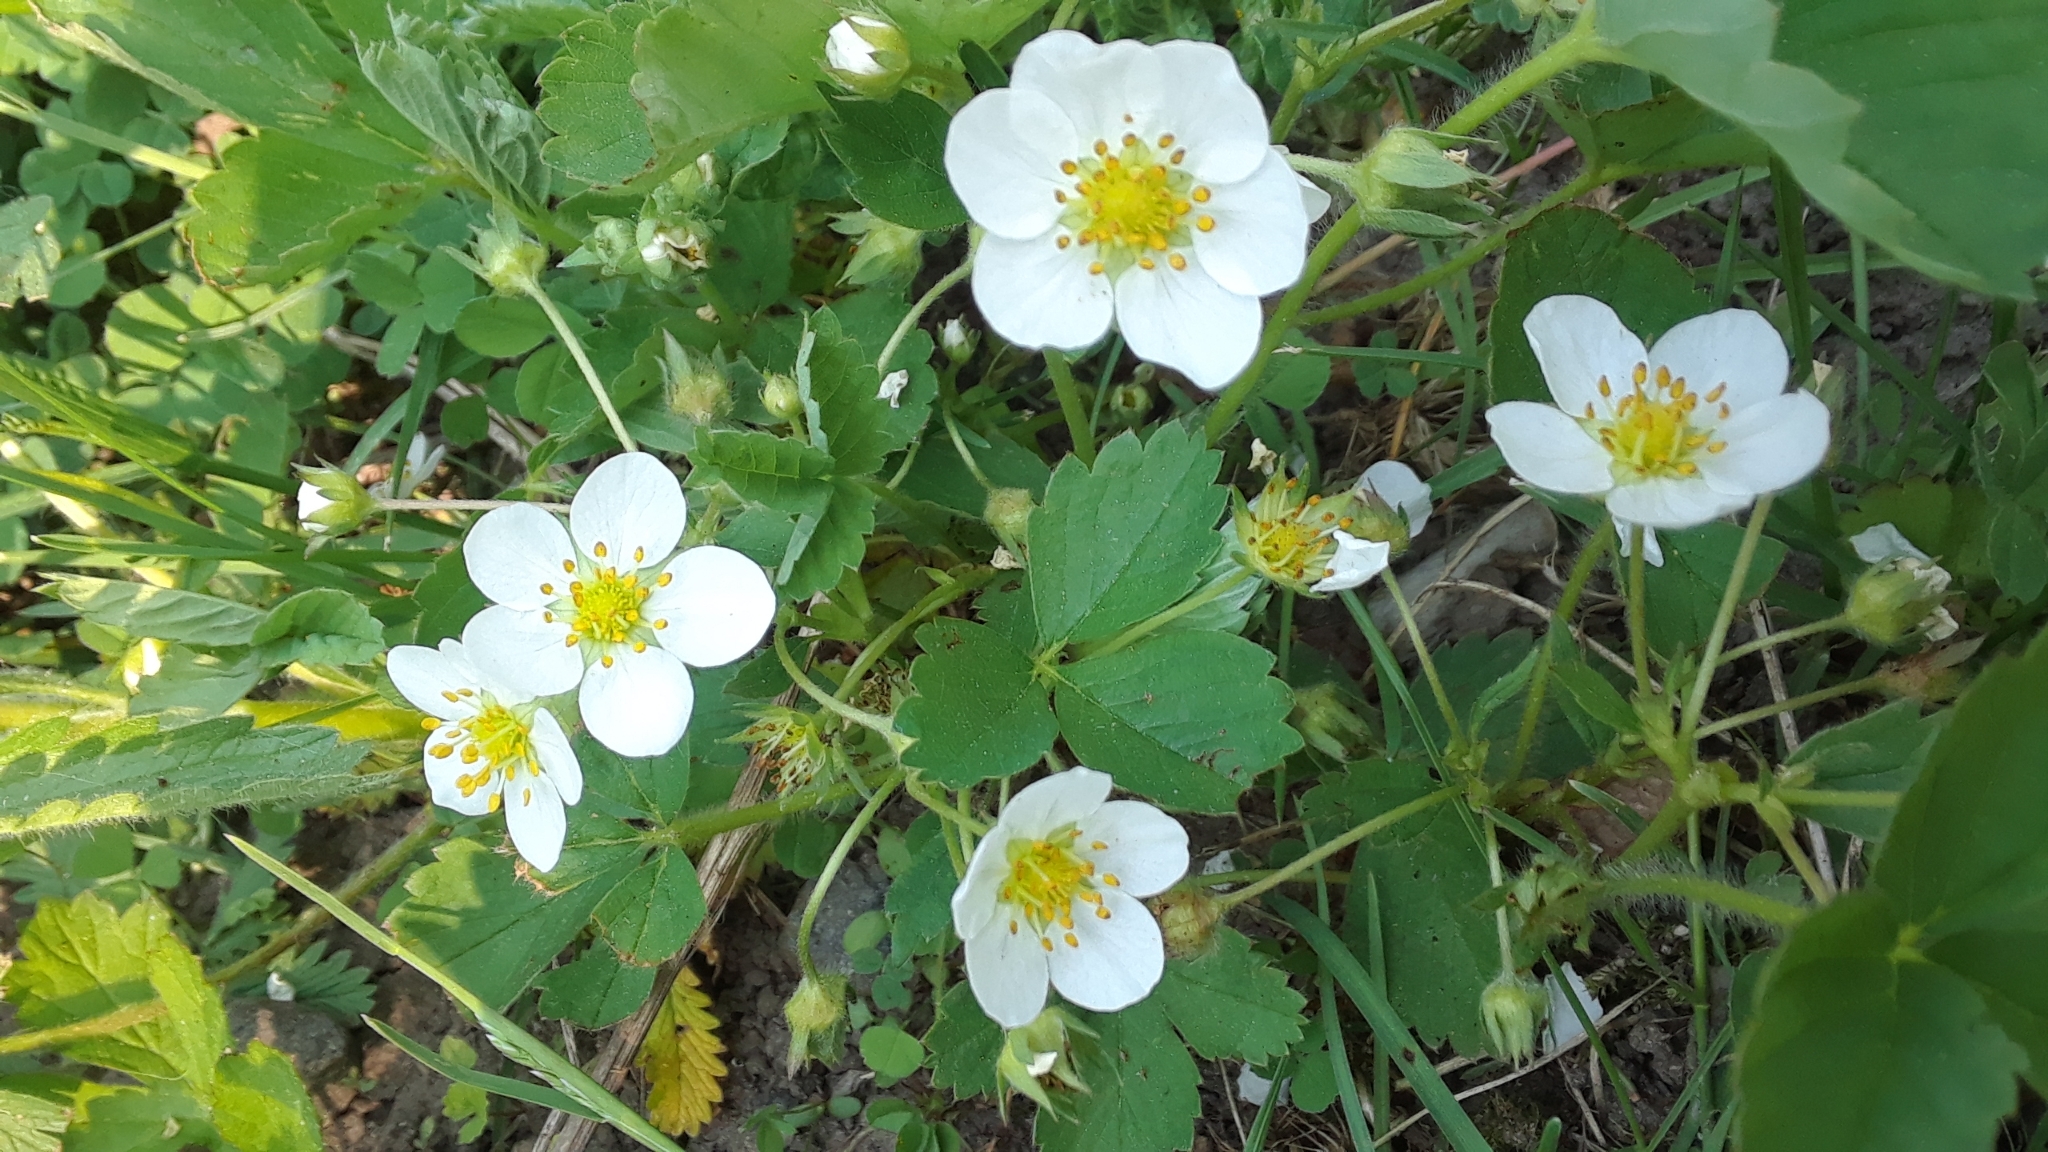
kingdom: Plantae
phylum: Tracheophyta
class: Magnoliopsida
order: Rosales
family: Rosaceae
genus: Fragaria
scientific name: Fragaria virginiana
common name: Thickleaved wild strawberry
